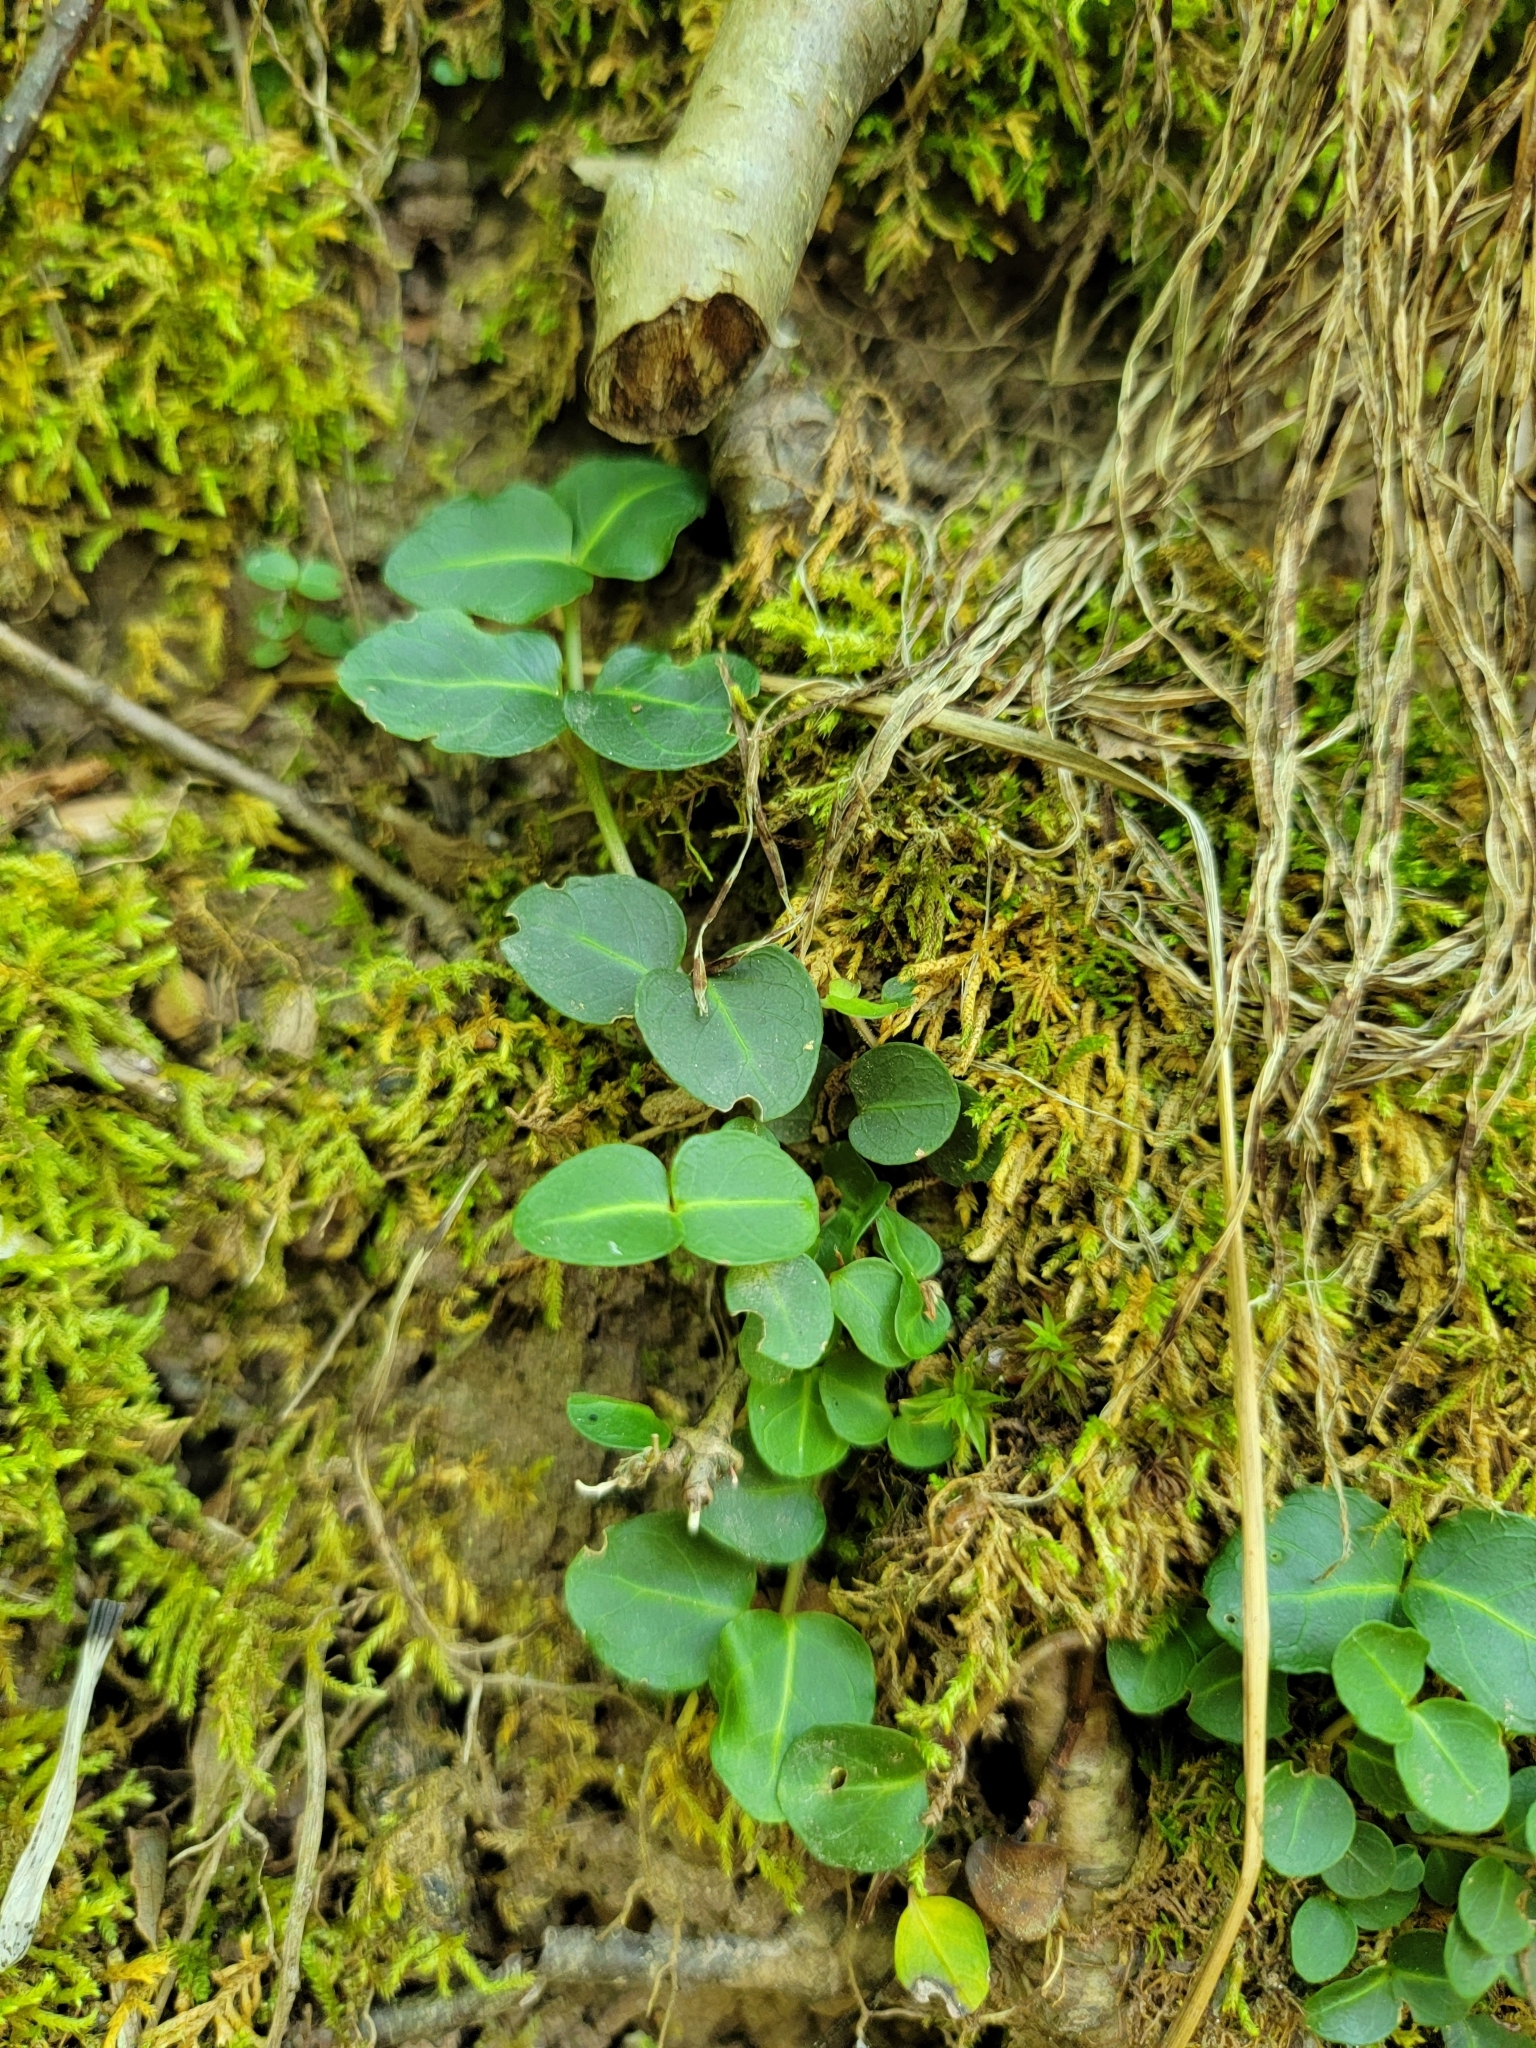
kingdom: Plantae
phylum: Tracheophyta
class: Magnoliopsida
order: Gentianales
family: Rubiaceae
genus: Mitchella
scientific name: Mitchella repens
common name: Partridge-berry
